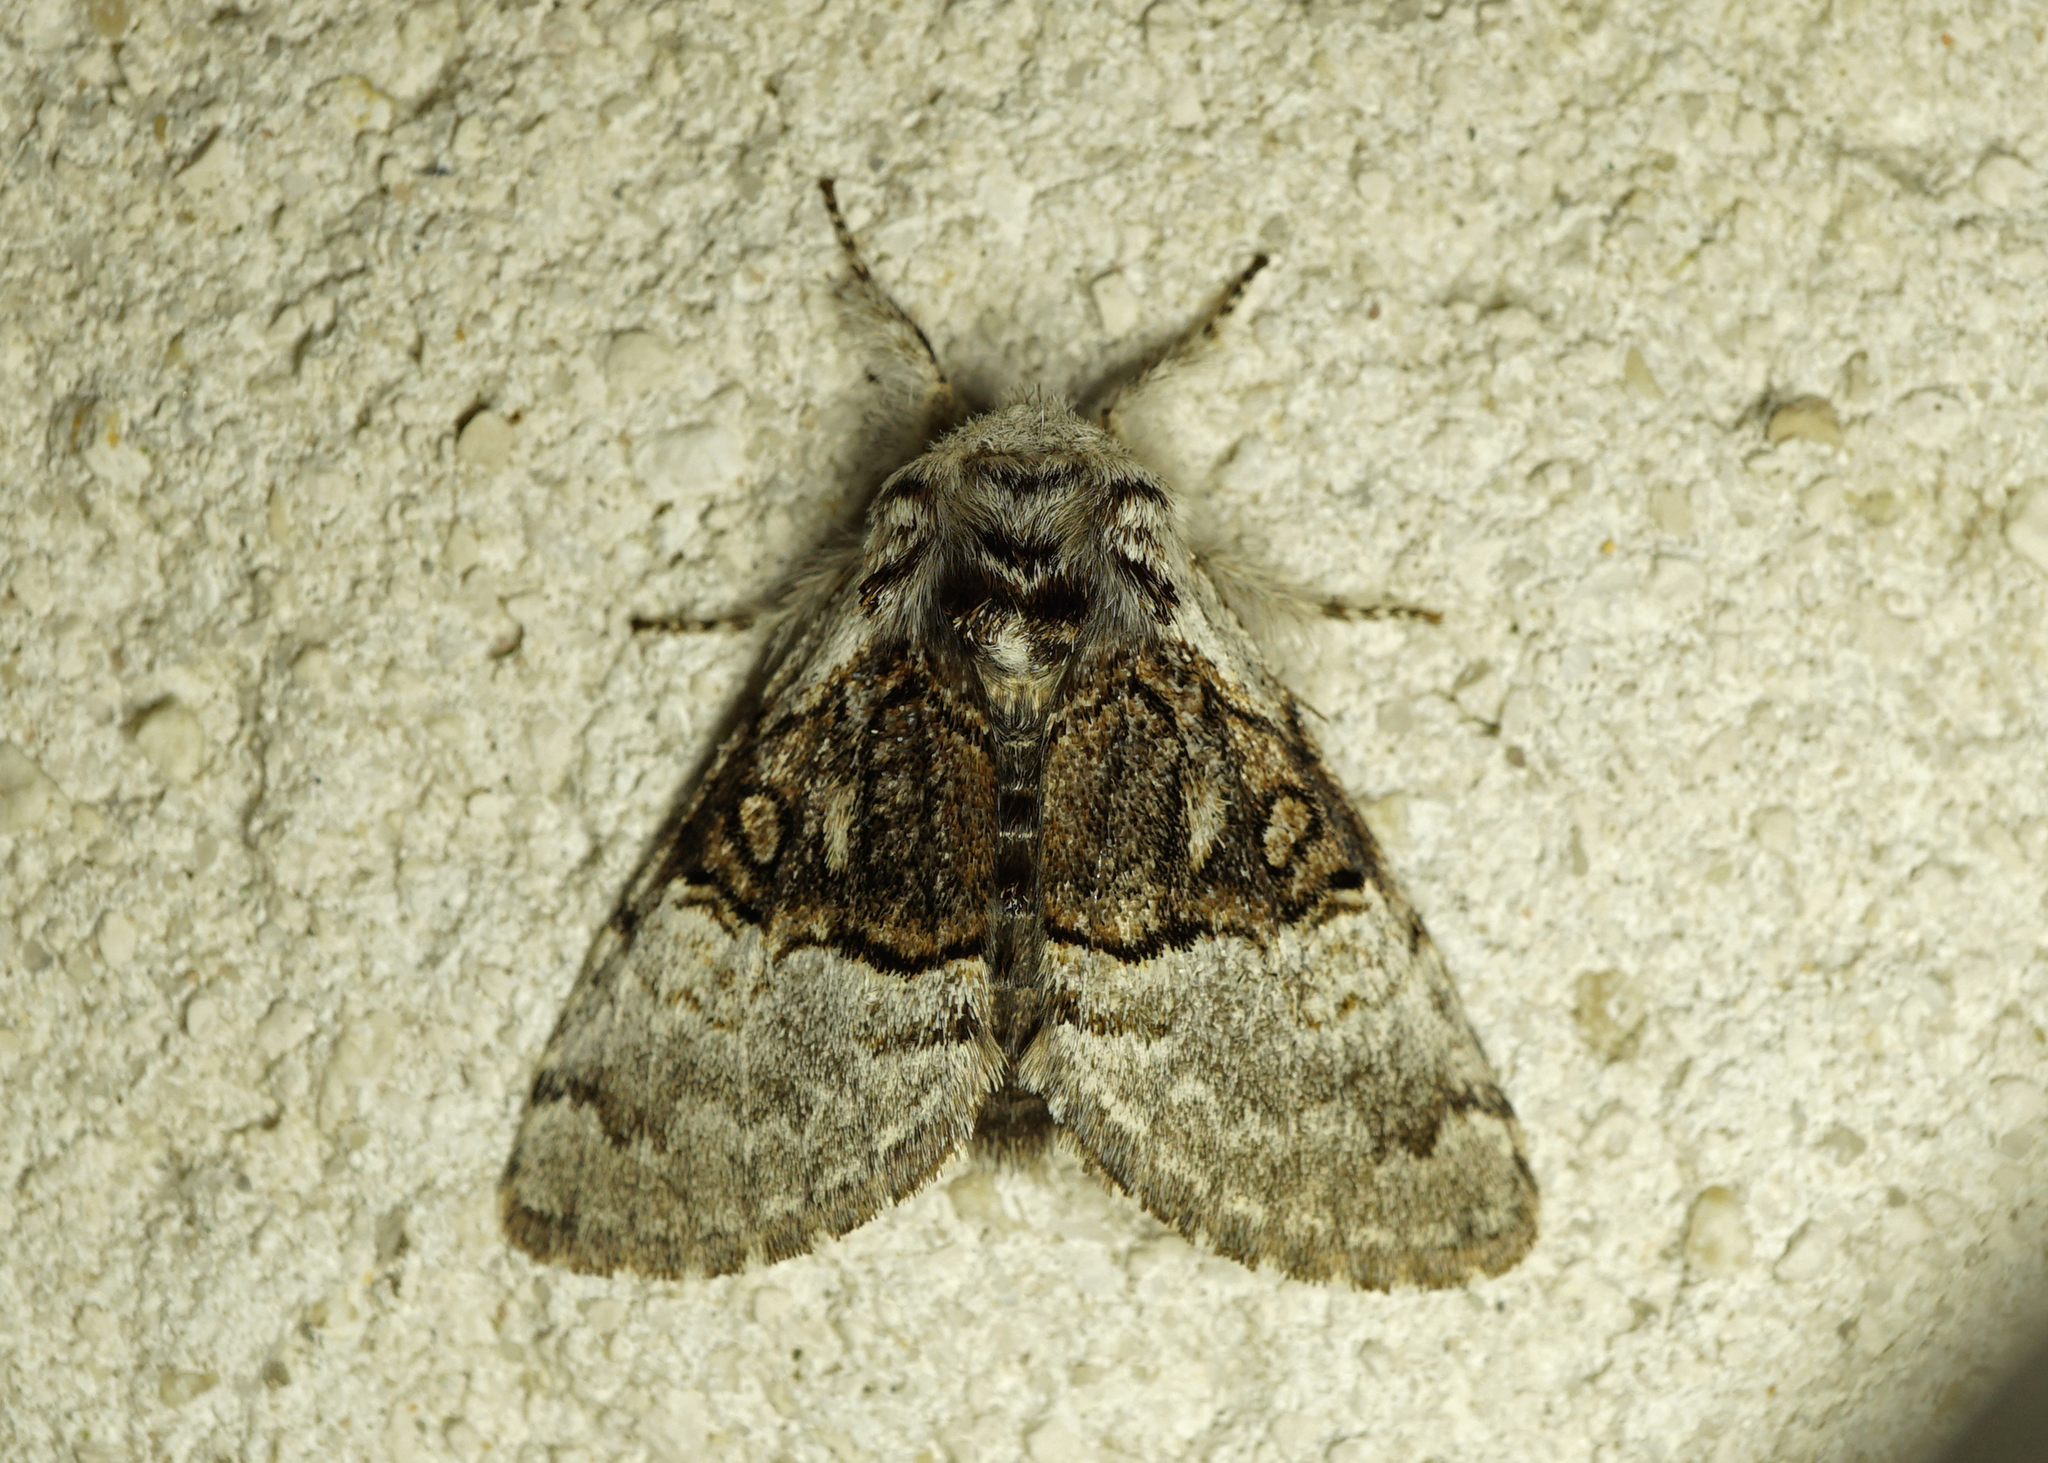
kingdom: Animalia
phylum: Arthropoda
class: Insecta
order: Lepidoptera
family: Noctuidae
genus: Colocasia
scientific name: Colocasia coryli
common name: Nut-tree tussock
